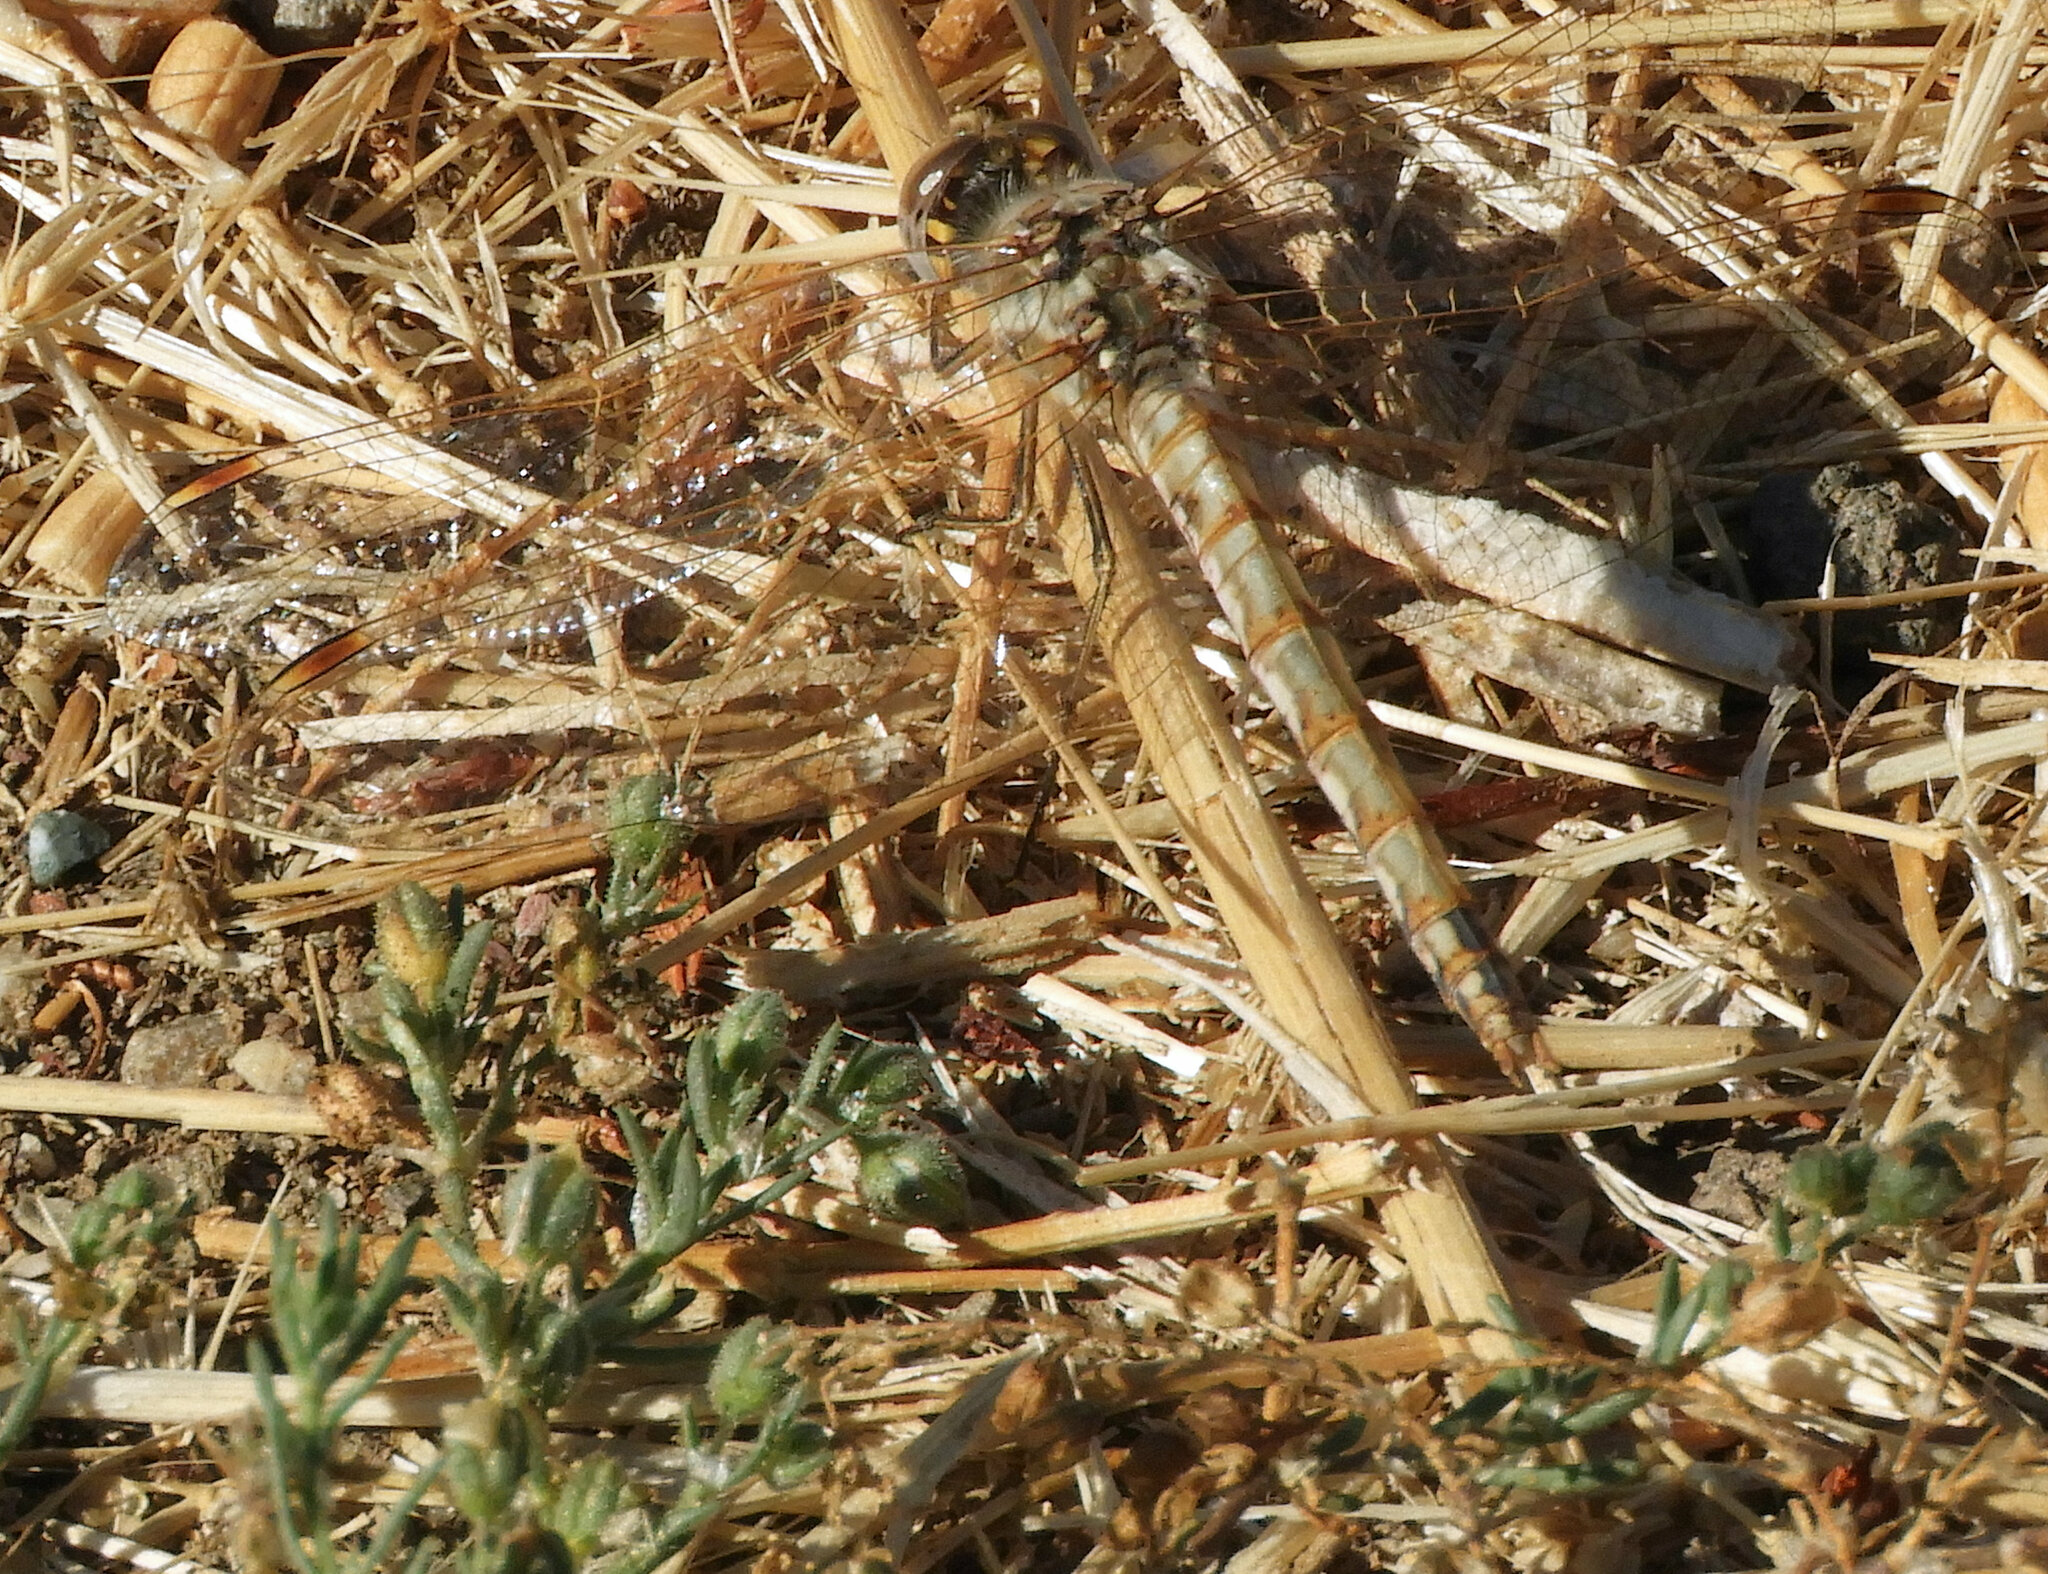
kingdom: Animalia
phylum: Arthropoda
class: Insecta
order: Odonata
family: Libellulidae
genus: Sympetrum
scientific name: Sympetrum corruptum
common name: Variegated meadowhawk
